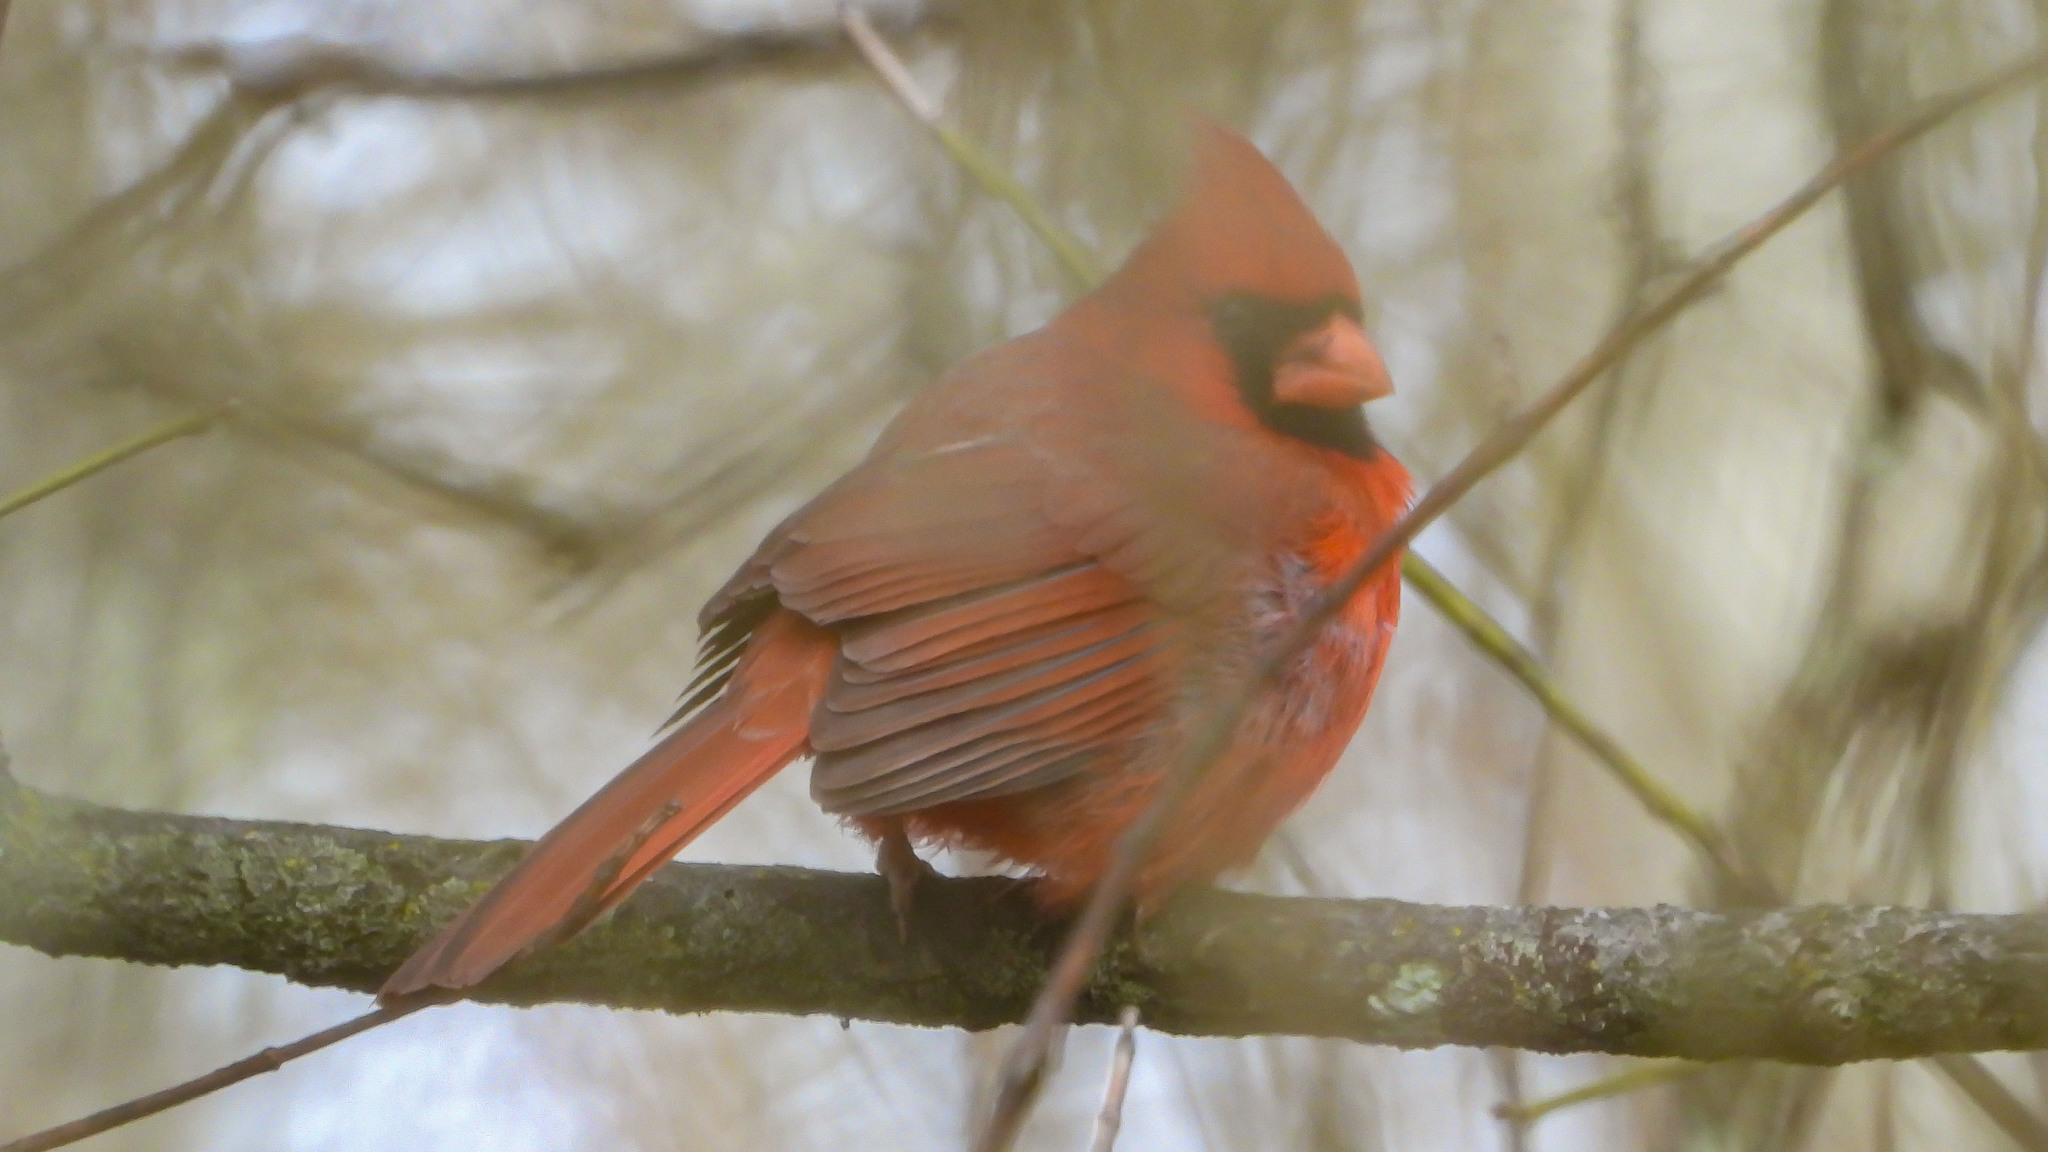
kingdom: Animalia
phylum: Chordata
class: Aves
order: Passeriformes
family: Cardinalidae
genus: Cardinalis
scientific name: Cardinalis cardinalis
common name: Northern cardinal
